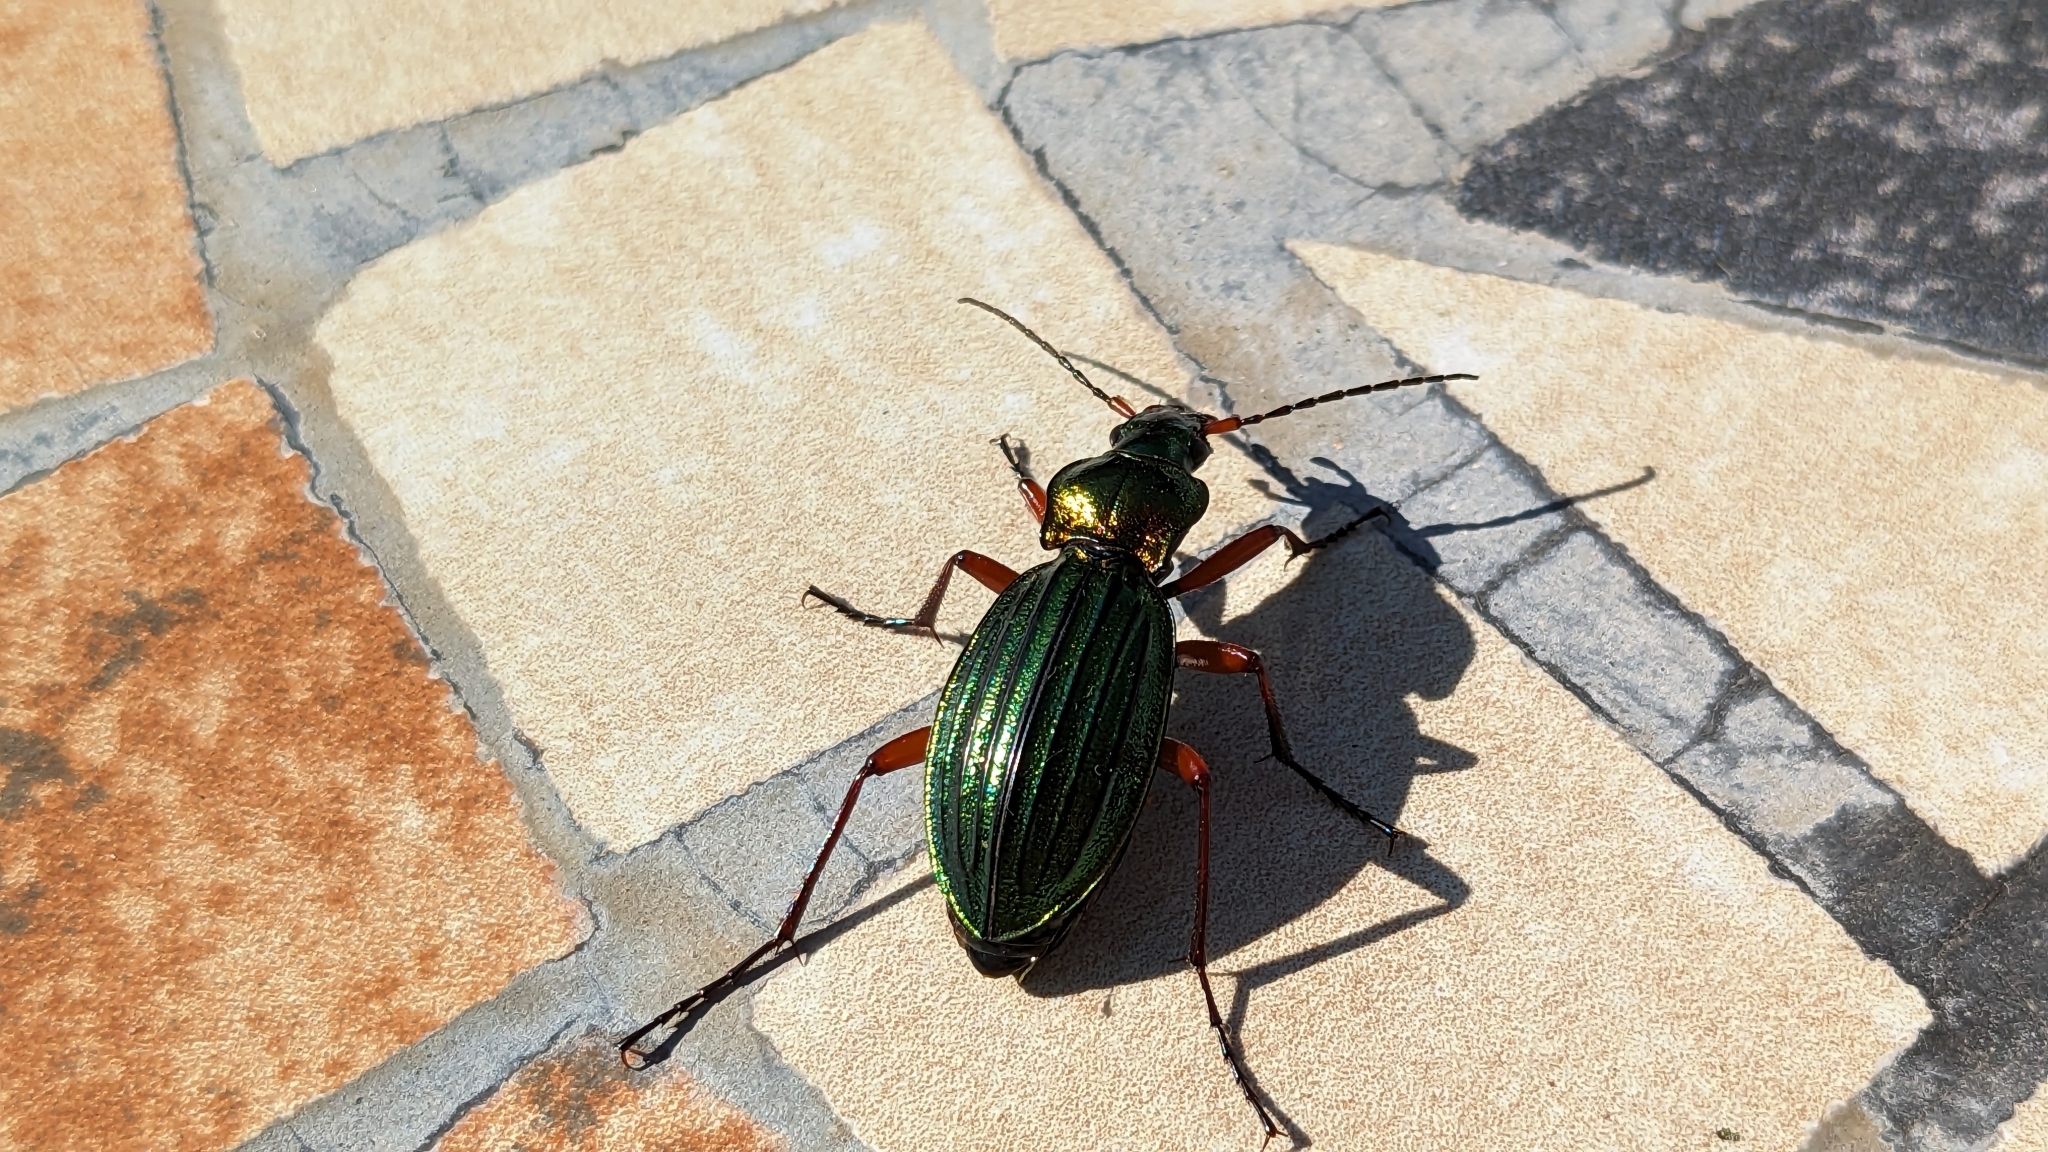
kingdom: Animalia
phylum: Arthropoda
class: Insecta
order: Coleoptera
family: Carabidae
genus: Carabus
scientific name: Carabus auronitens
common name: Carabus auronitens
